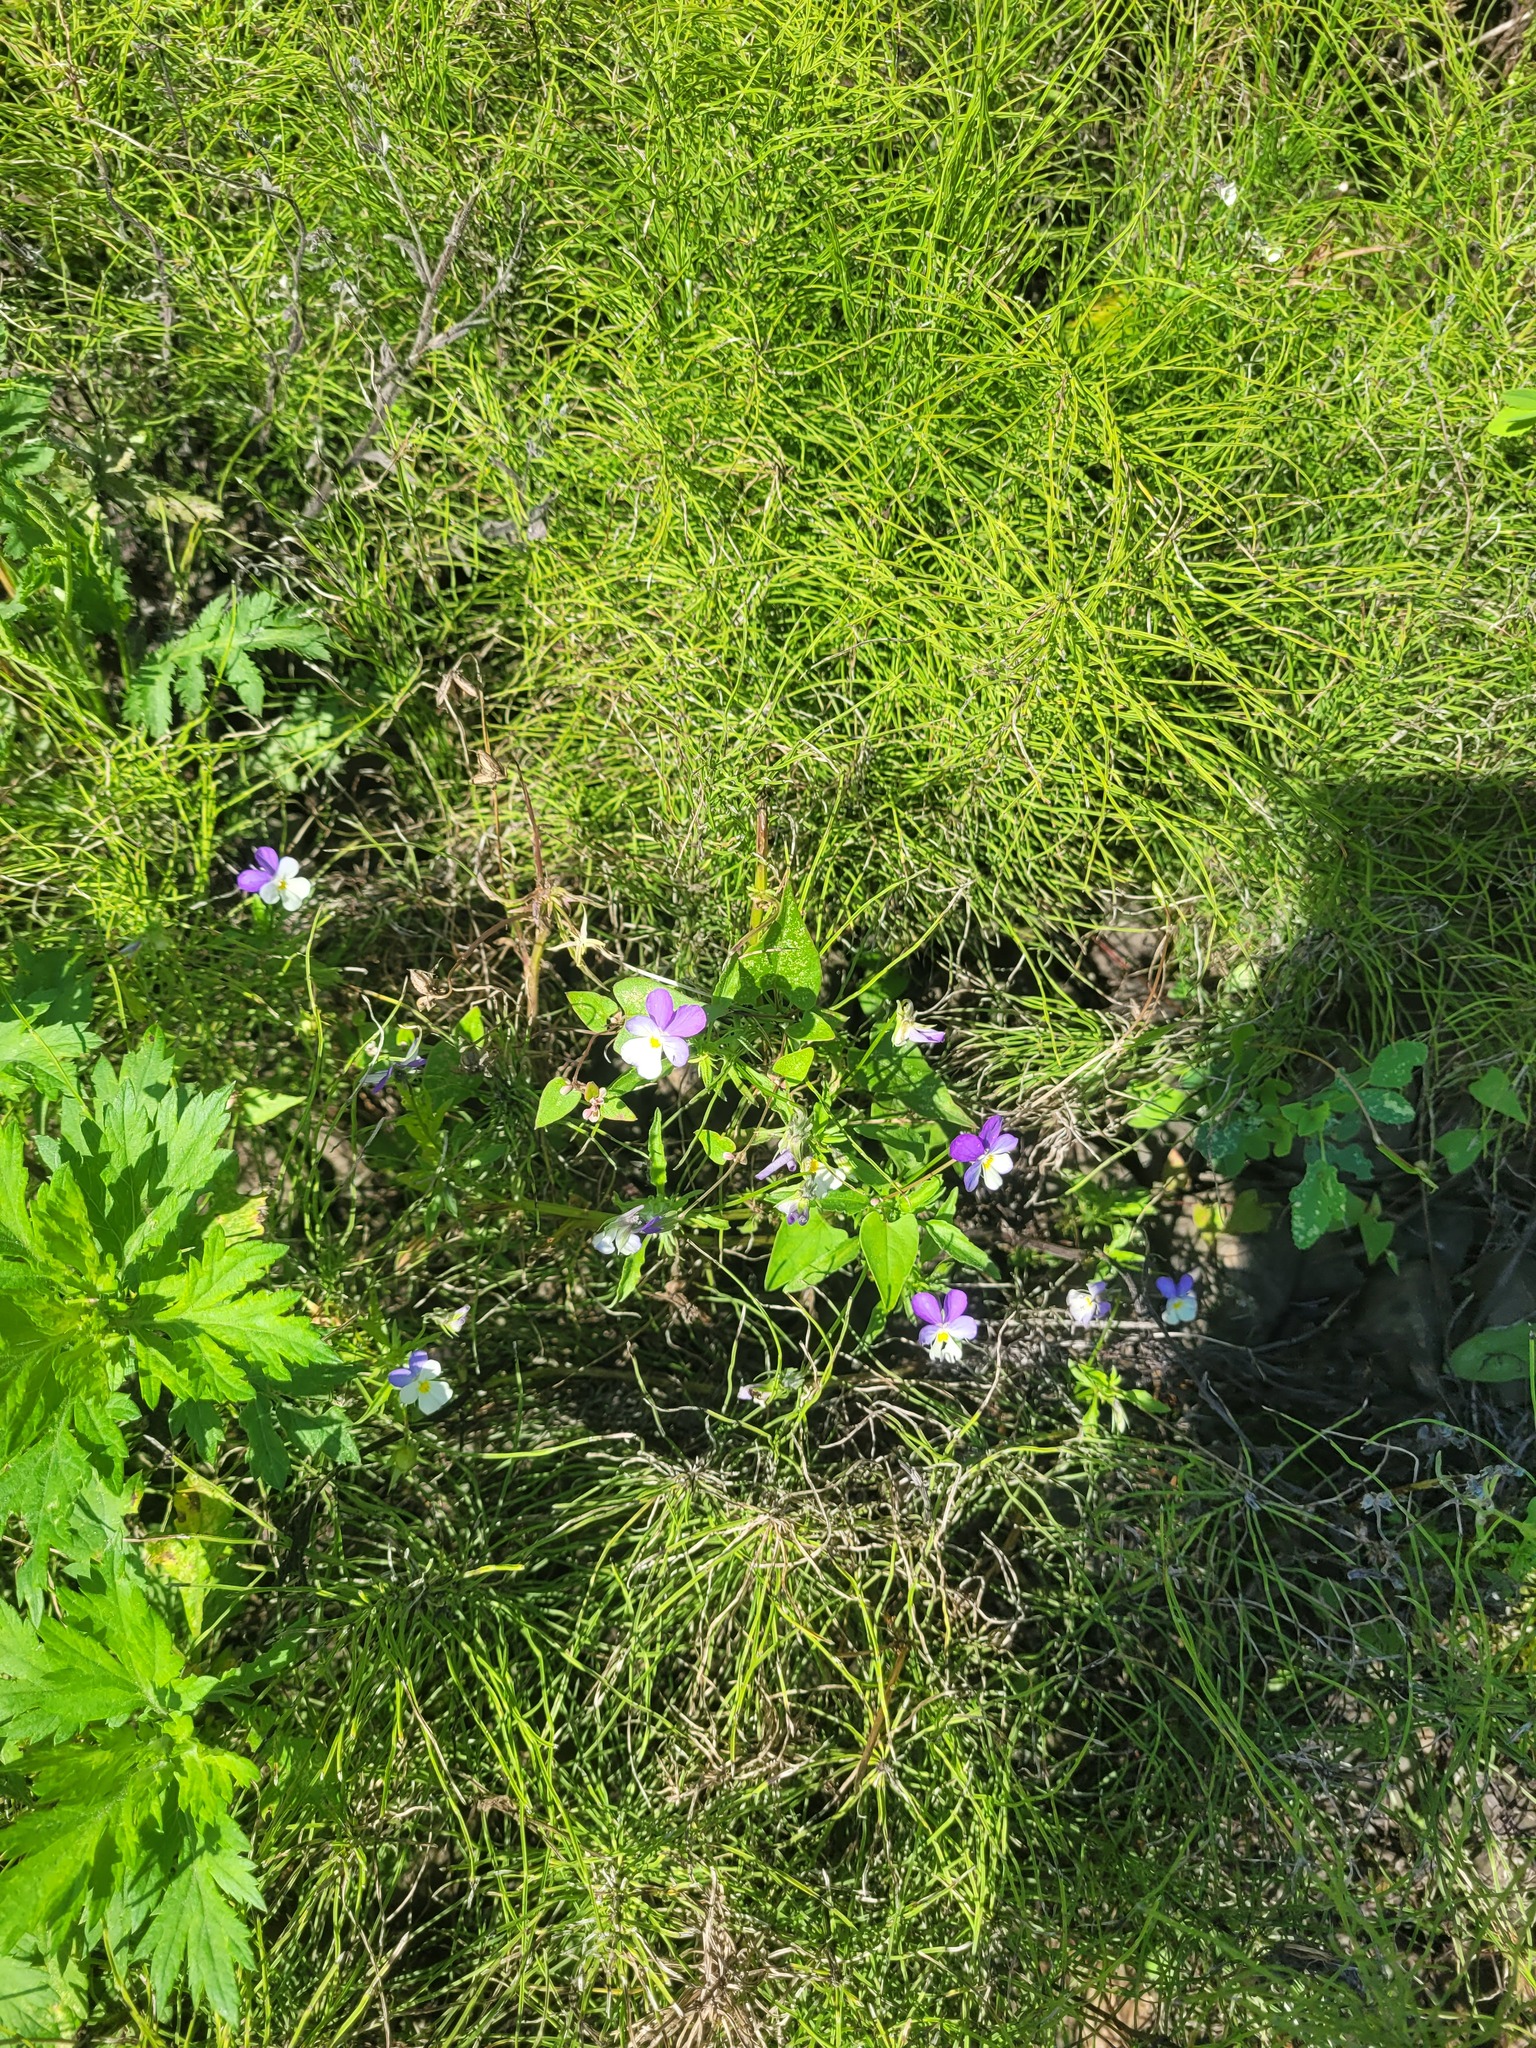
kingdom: Plantae
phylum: Tracheophyta
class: Magnoliopsida
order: Malpighiales
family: Violaceae
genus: Viola
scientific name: Viola tricolor
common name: Pansy
